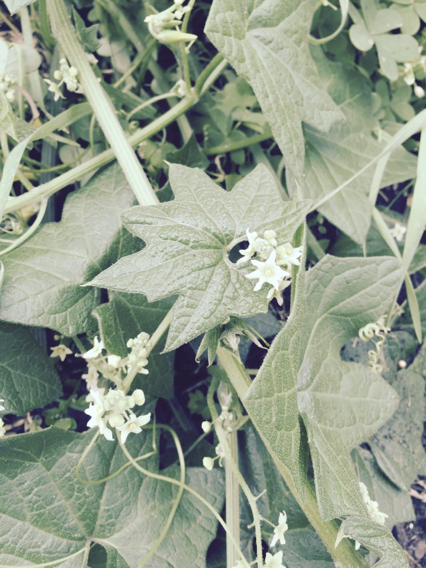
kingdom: Plantae
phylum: Tracheophyta
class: Magnoliopsida
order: Cucurbitales
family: Cucurbitaceae
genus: Marah
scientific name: Marah fabacea
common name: California manroot
